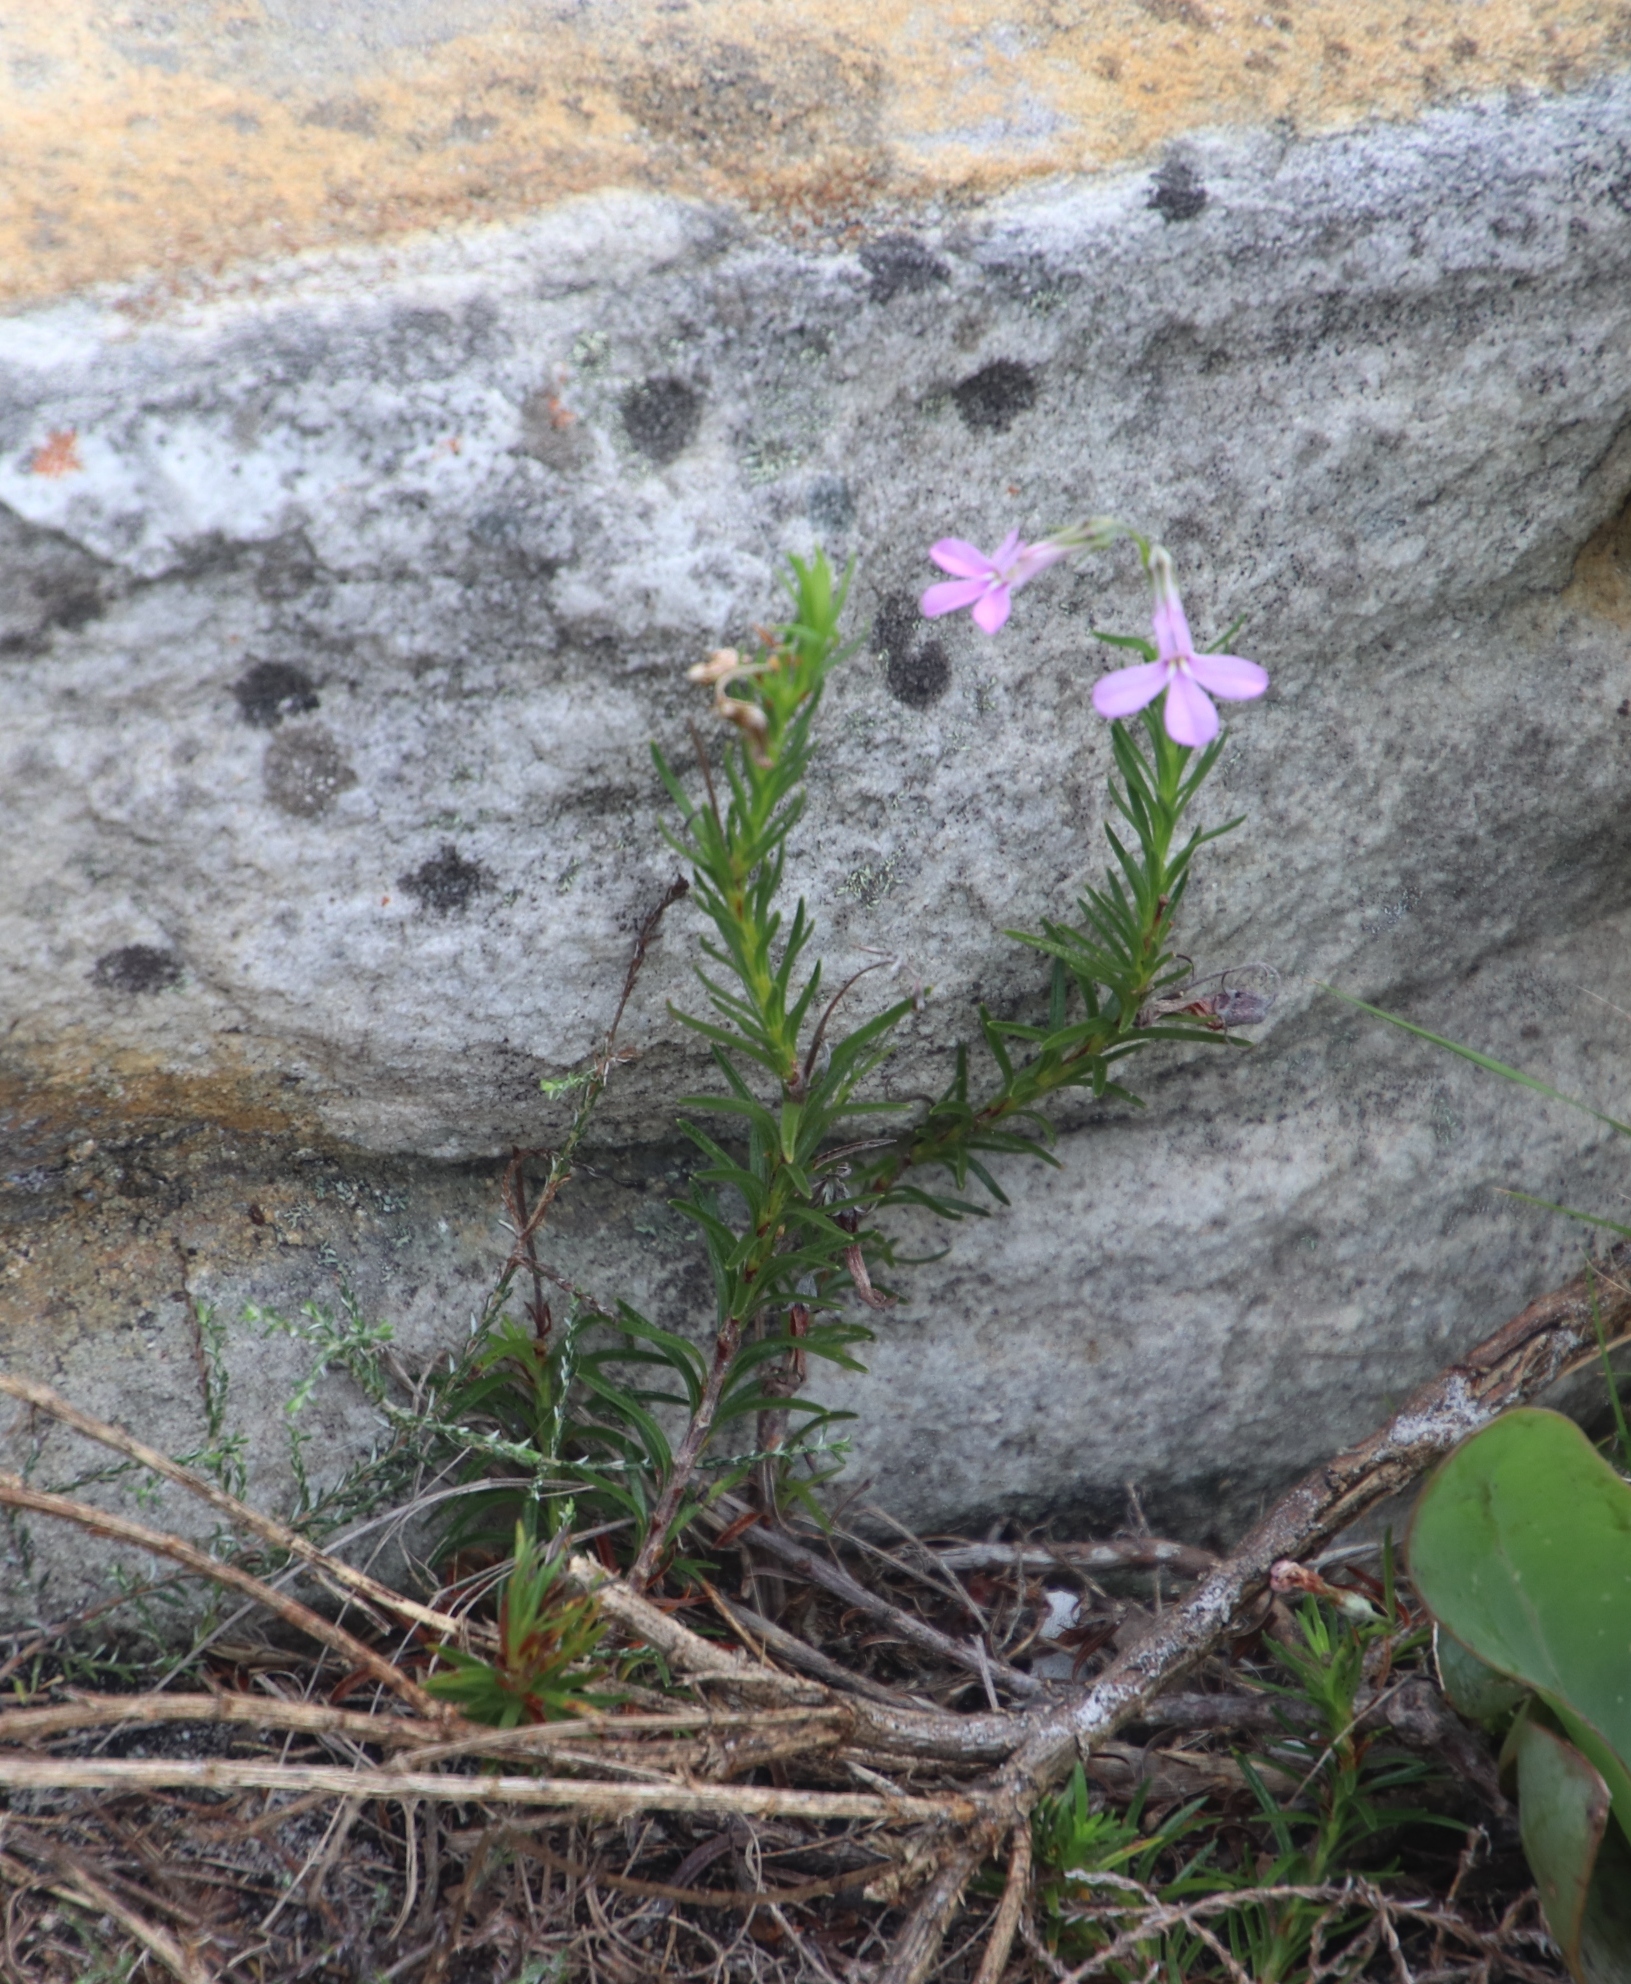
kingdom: Plantae
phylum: Tracheophyta
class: Magnoliopsida
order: Asterales
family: Campanulaceae
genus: Lobelia
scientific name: Lobelia pinifolia
